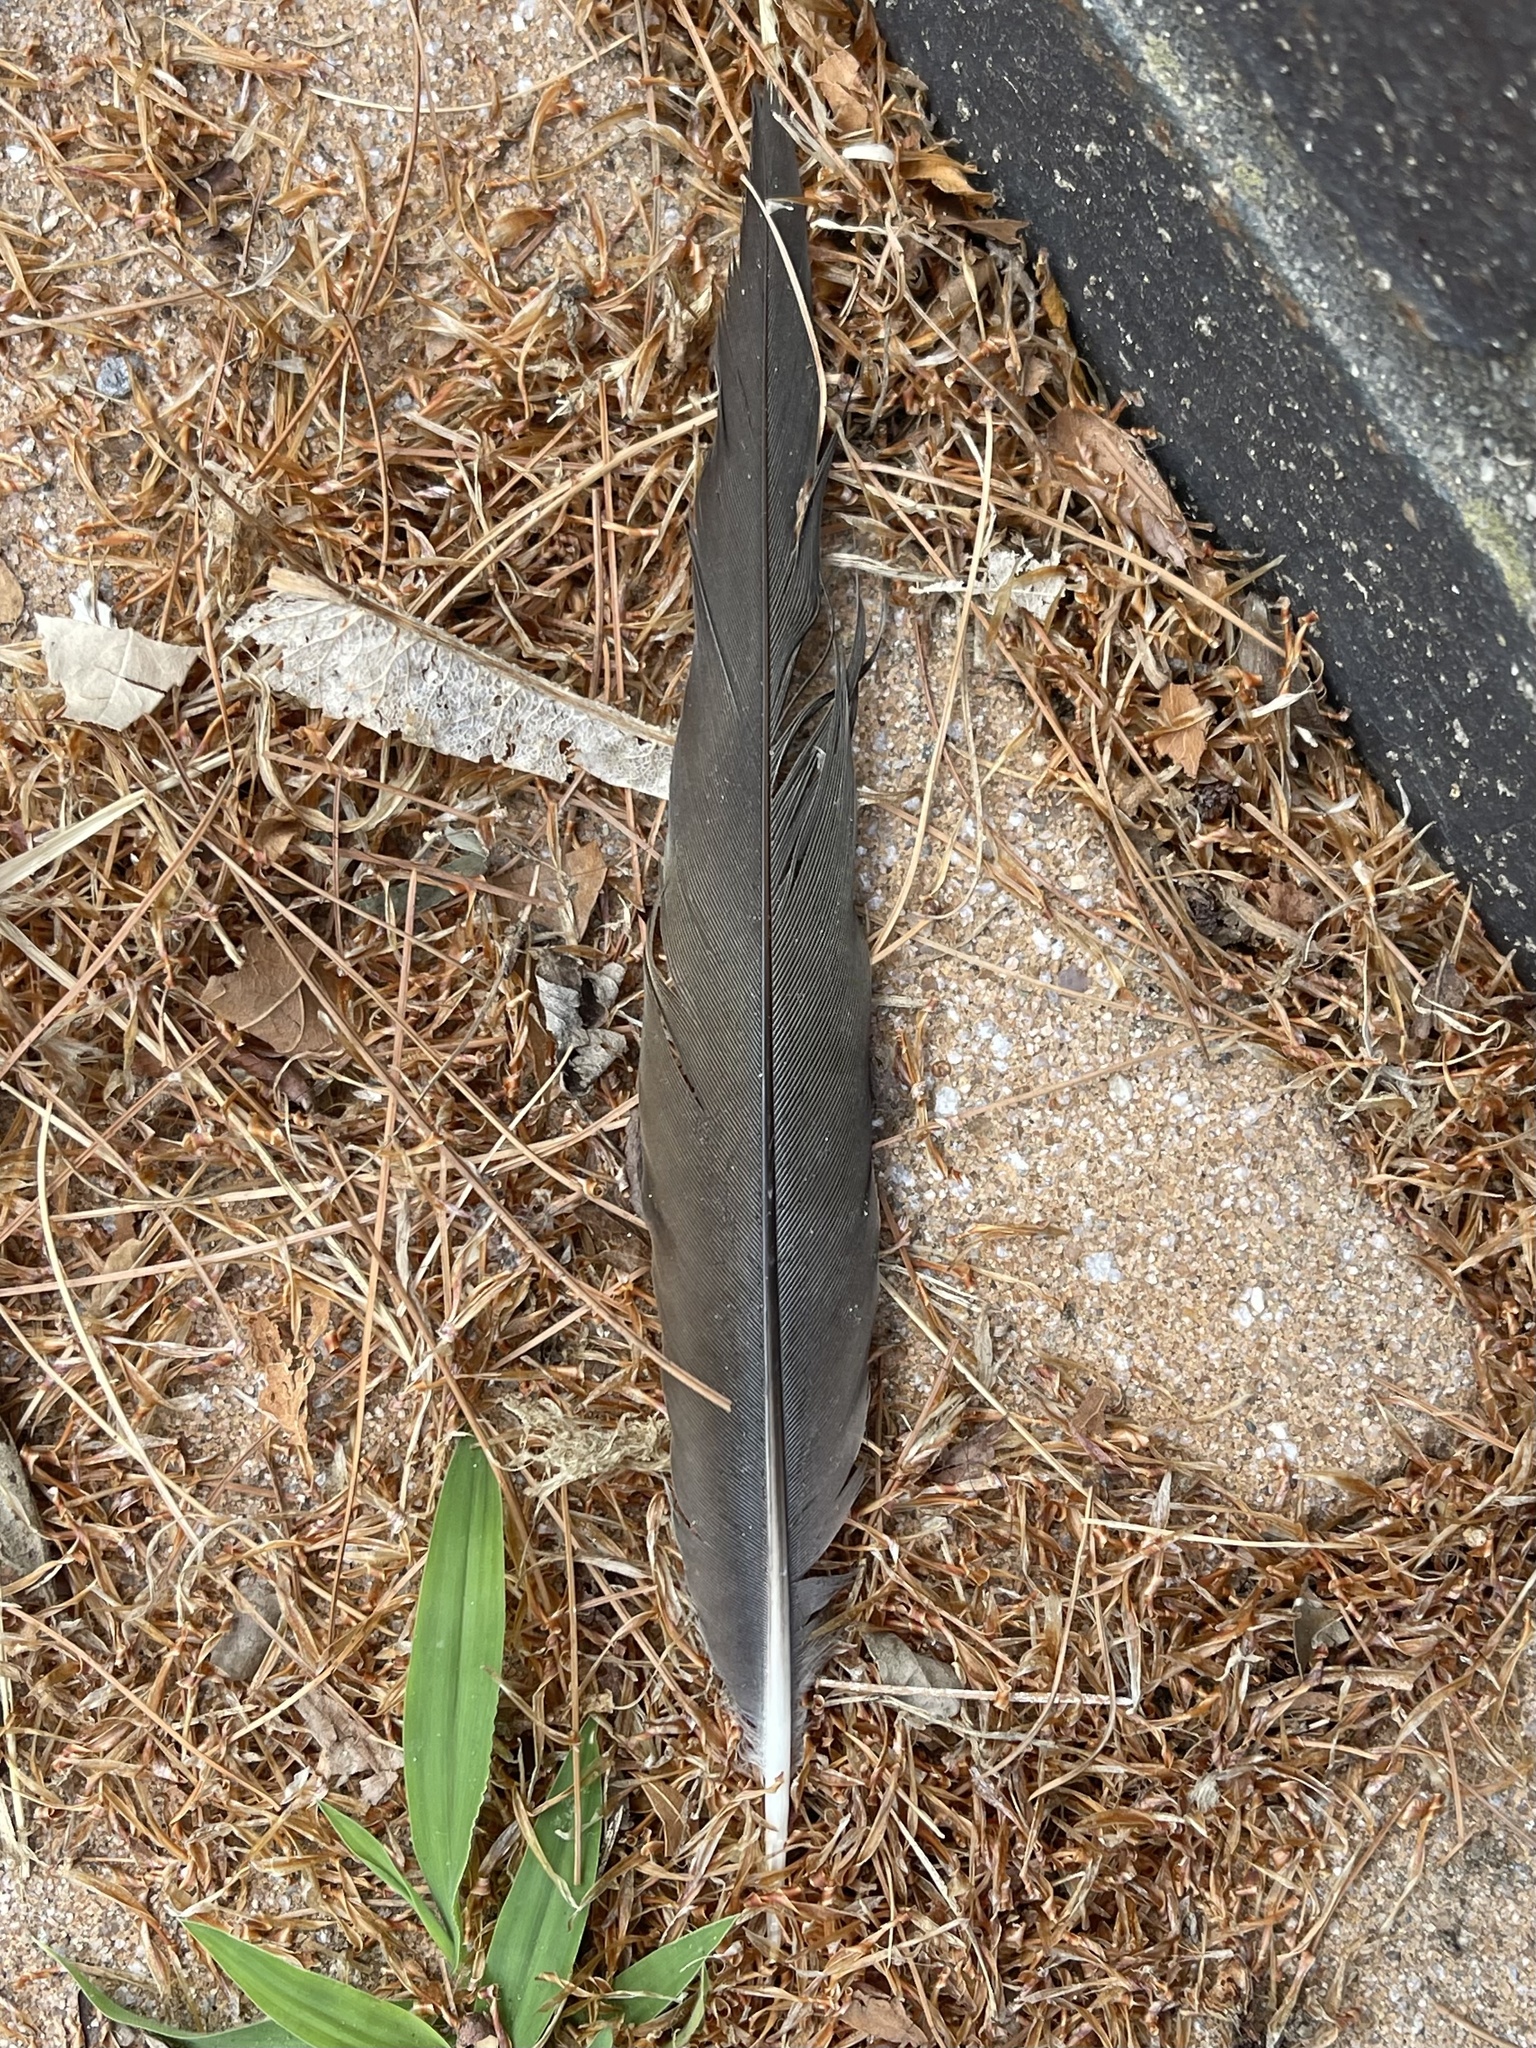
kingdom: Animalia
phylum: Chordata
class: Aves
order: Columbiformes
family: Columbidae
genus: Zenaida
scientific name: Zenaida macroura
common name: Mourning dove
